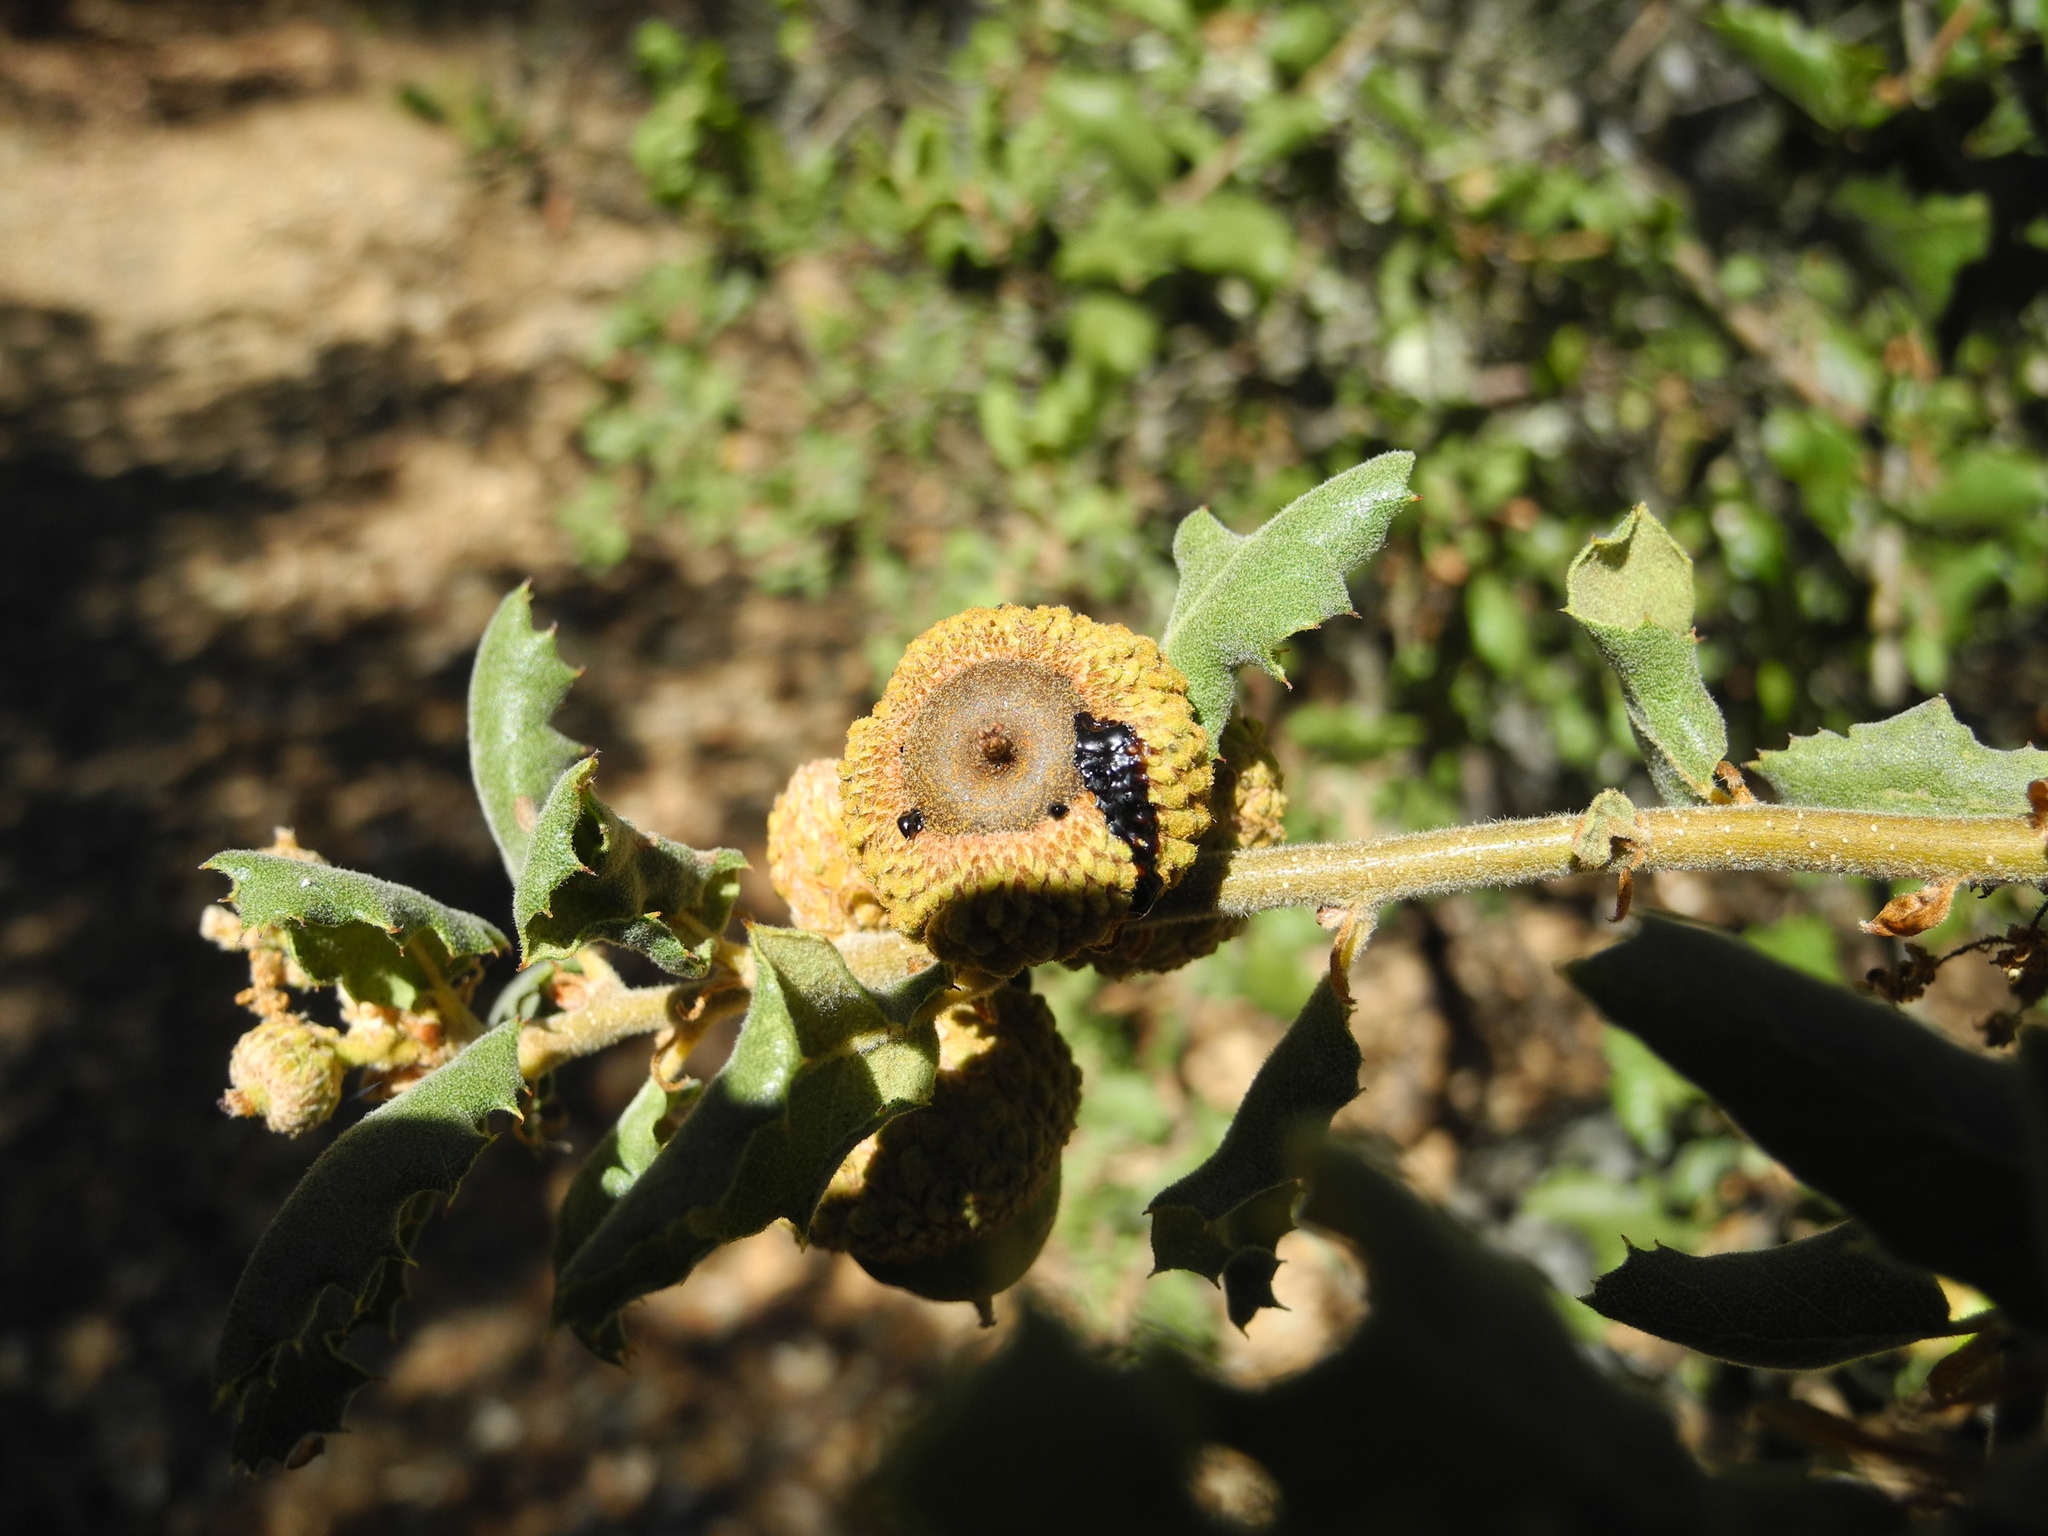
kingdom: Plantae
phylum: Tracheophyta
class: Magnoliopsida
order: Fagales
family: Fagaceae
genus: Quercus
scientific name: Quercus durata
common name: Leather oak
